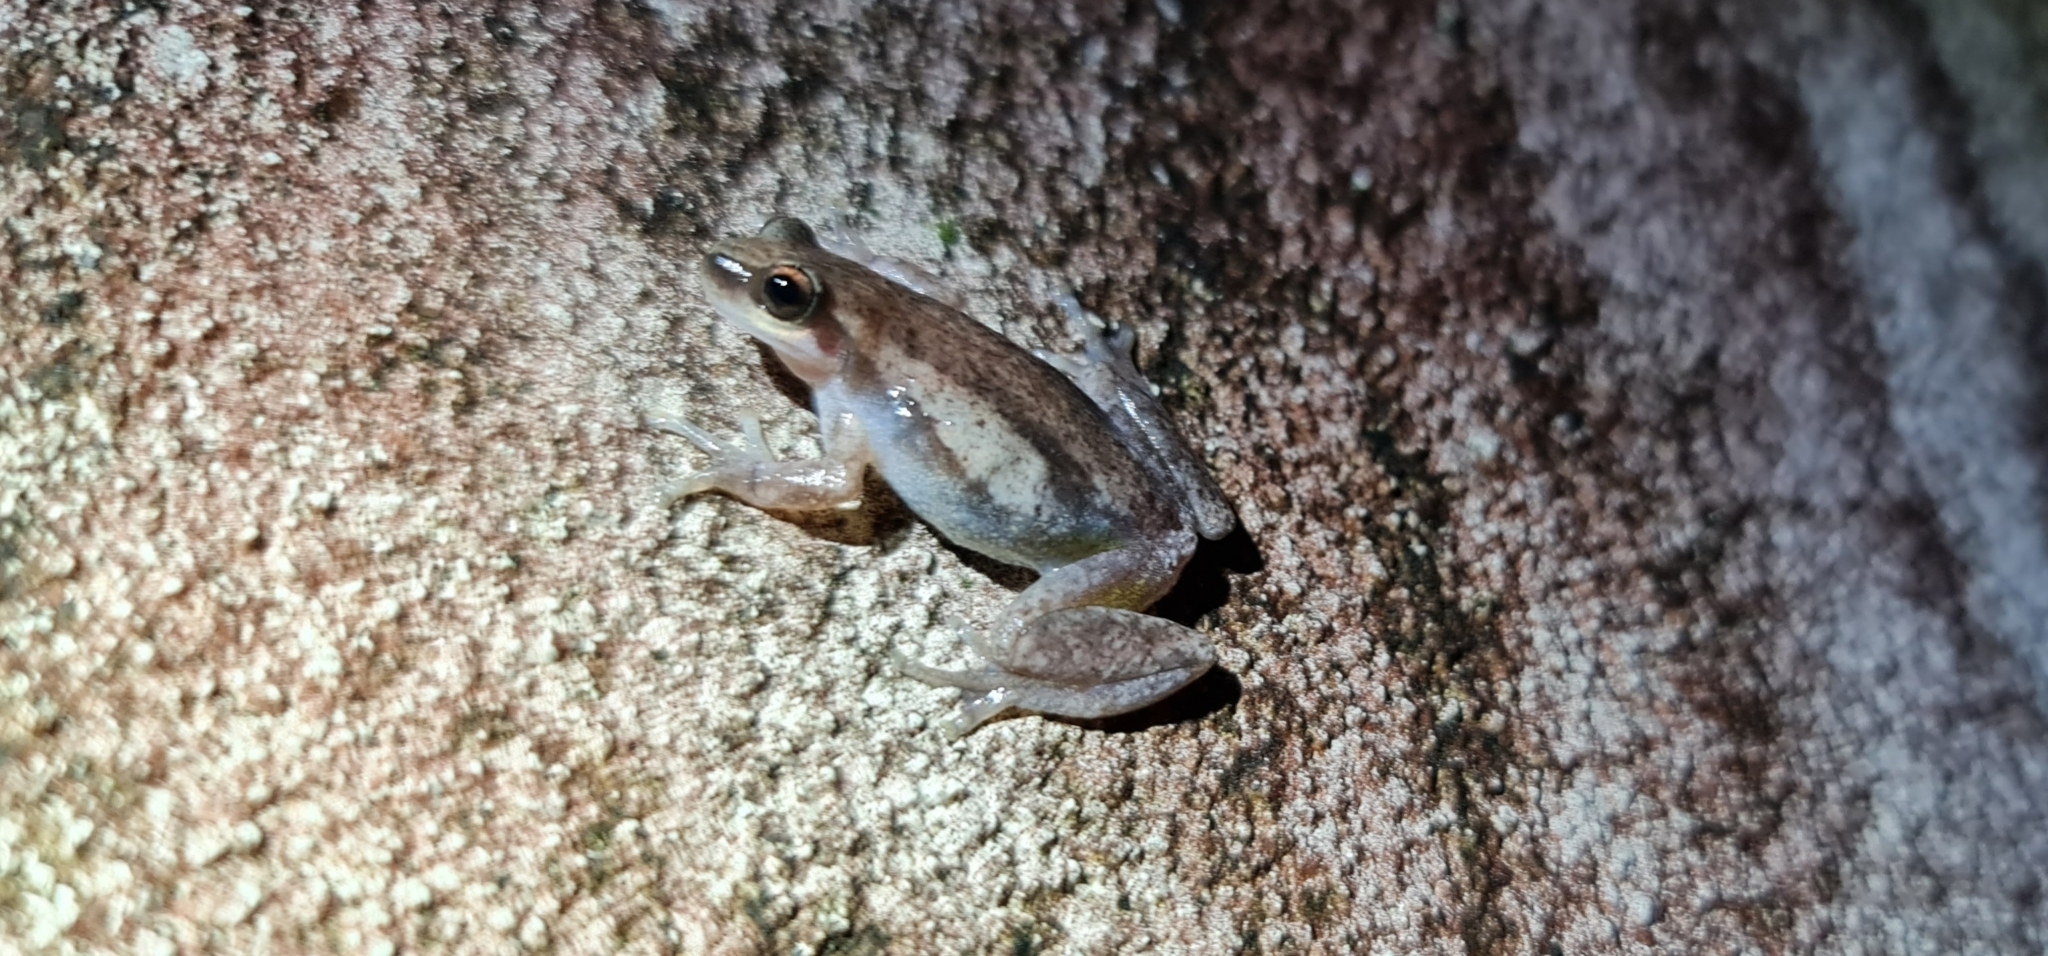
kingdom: Animalia
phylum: Chordata
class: Amphibia
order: Anura
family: Pelodryadidae
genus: Litoria
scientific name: Litoria rubella
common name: Desert tree frog
